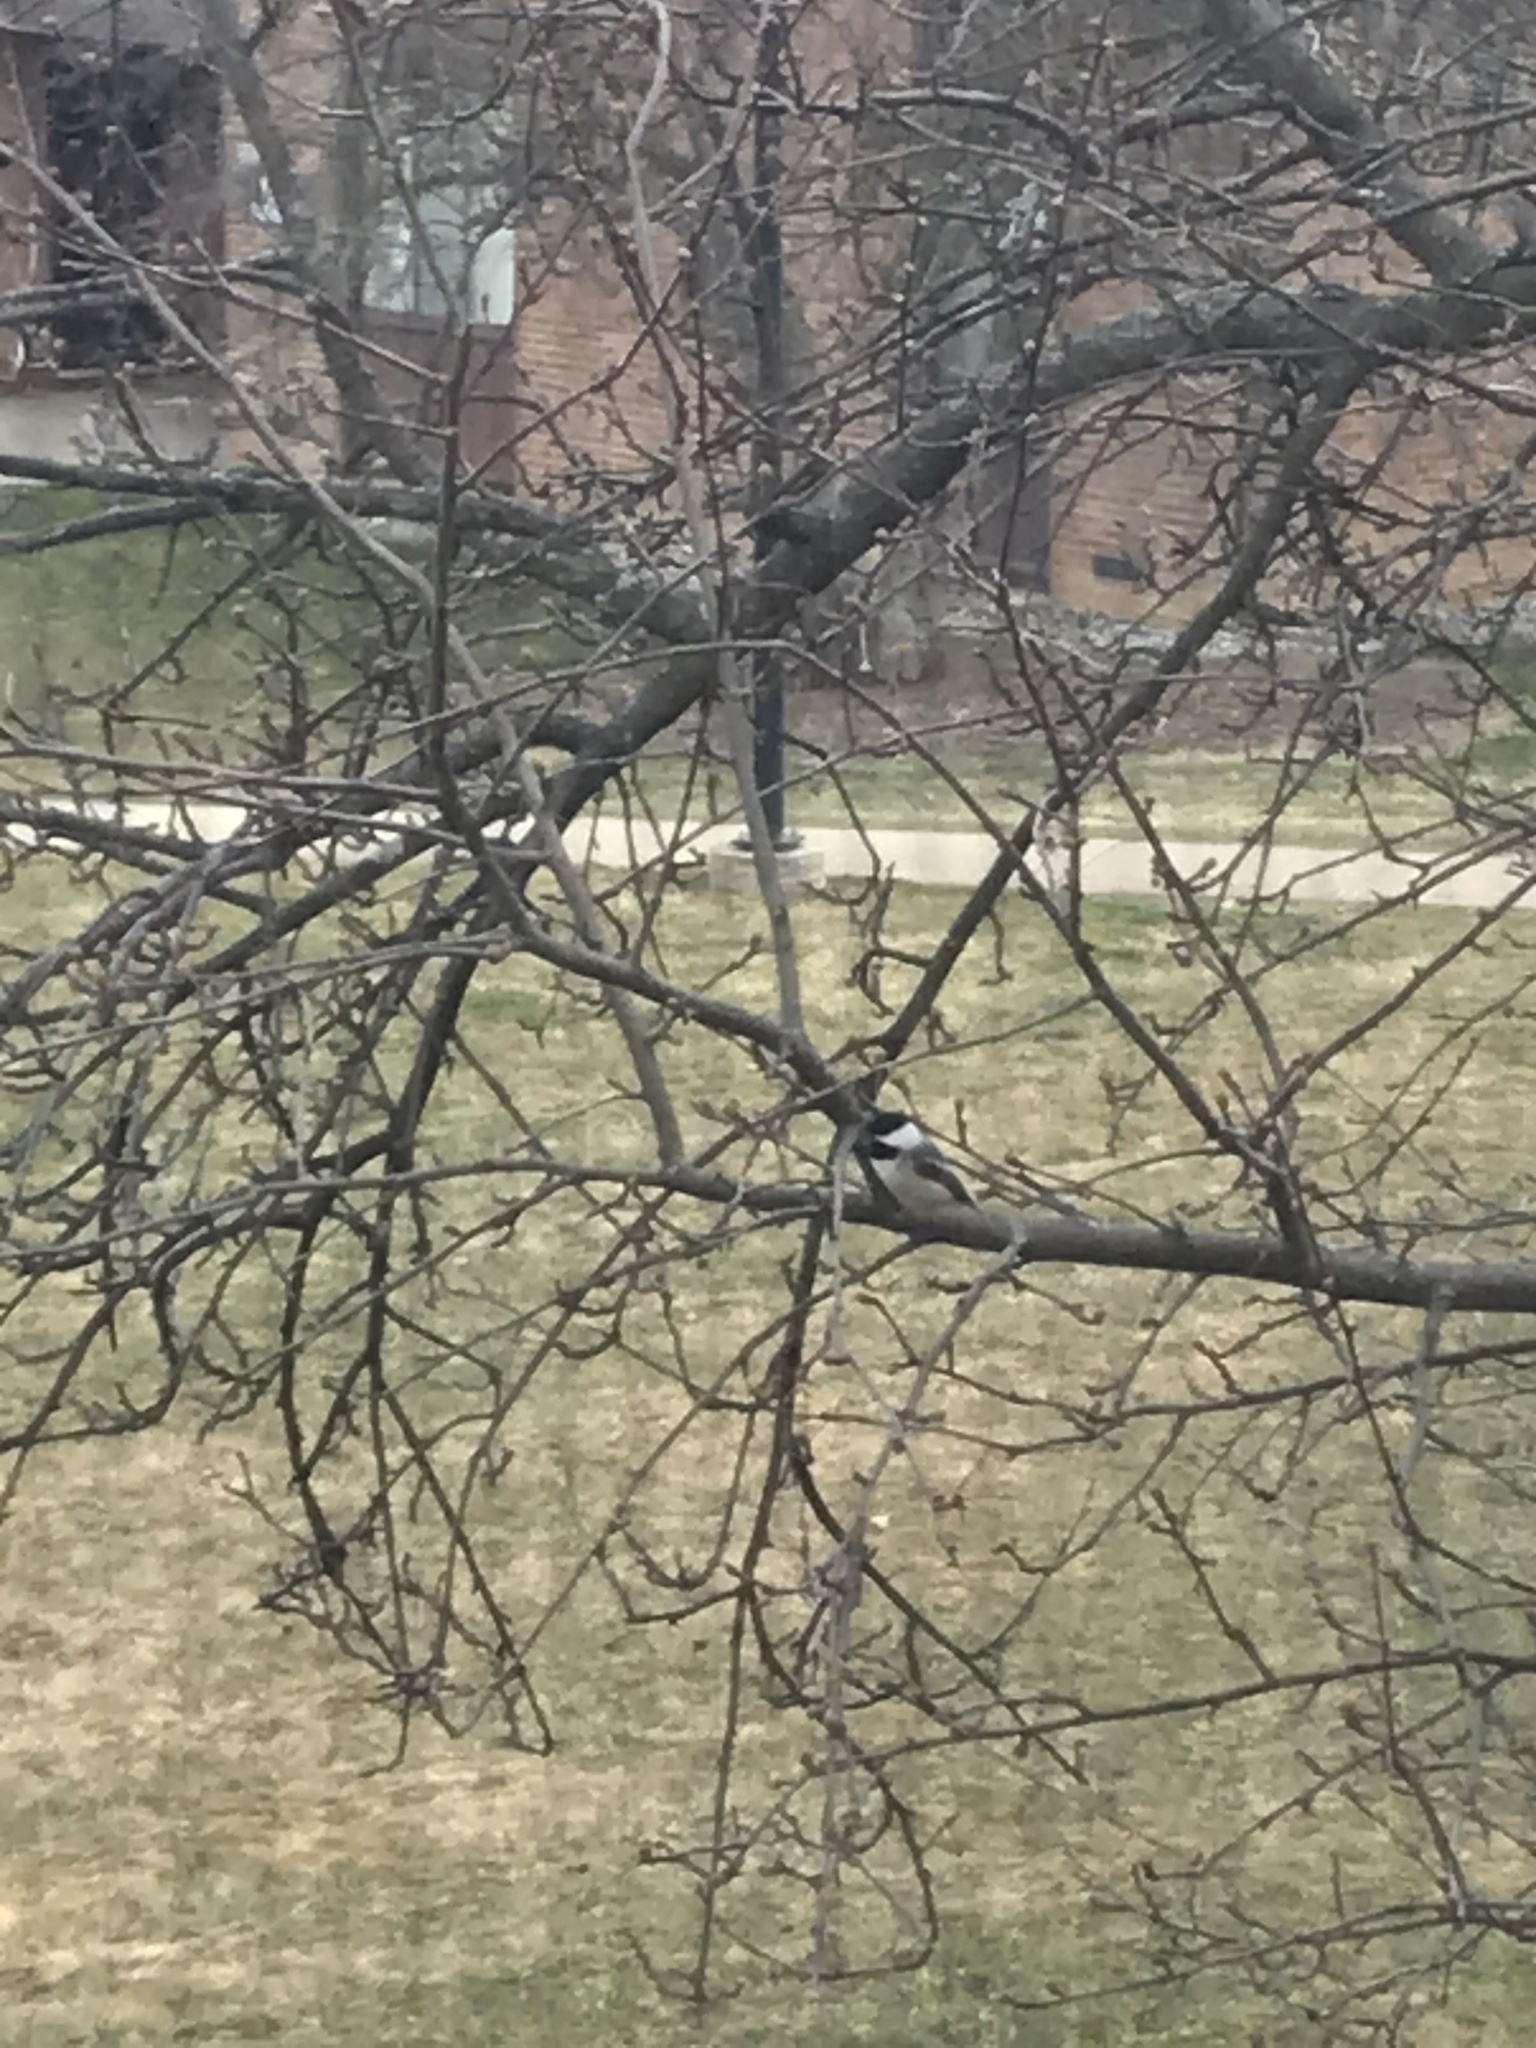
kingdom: Animalia
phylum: Chordata
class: Aves
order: Passeriformes
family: Paridae
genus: Poecile
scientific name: Poecile atricapillus
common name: Black-capped chickadee
